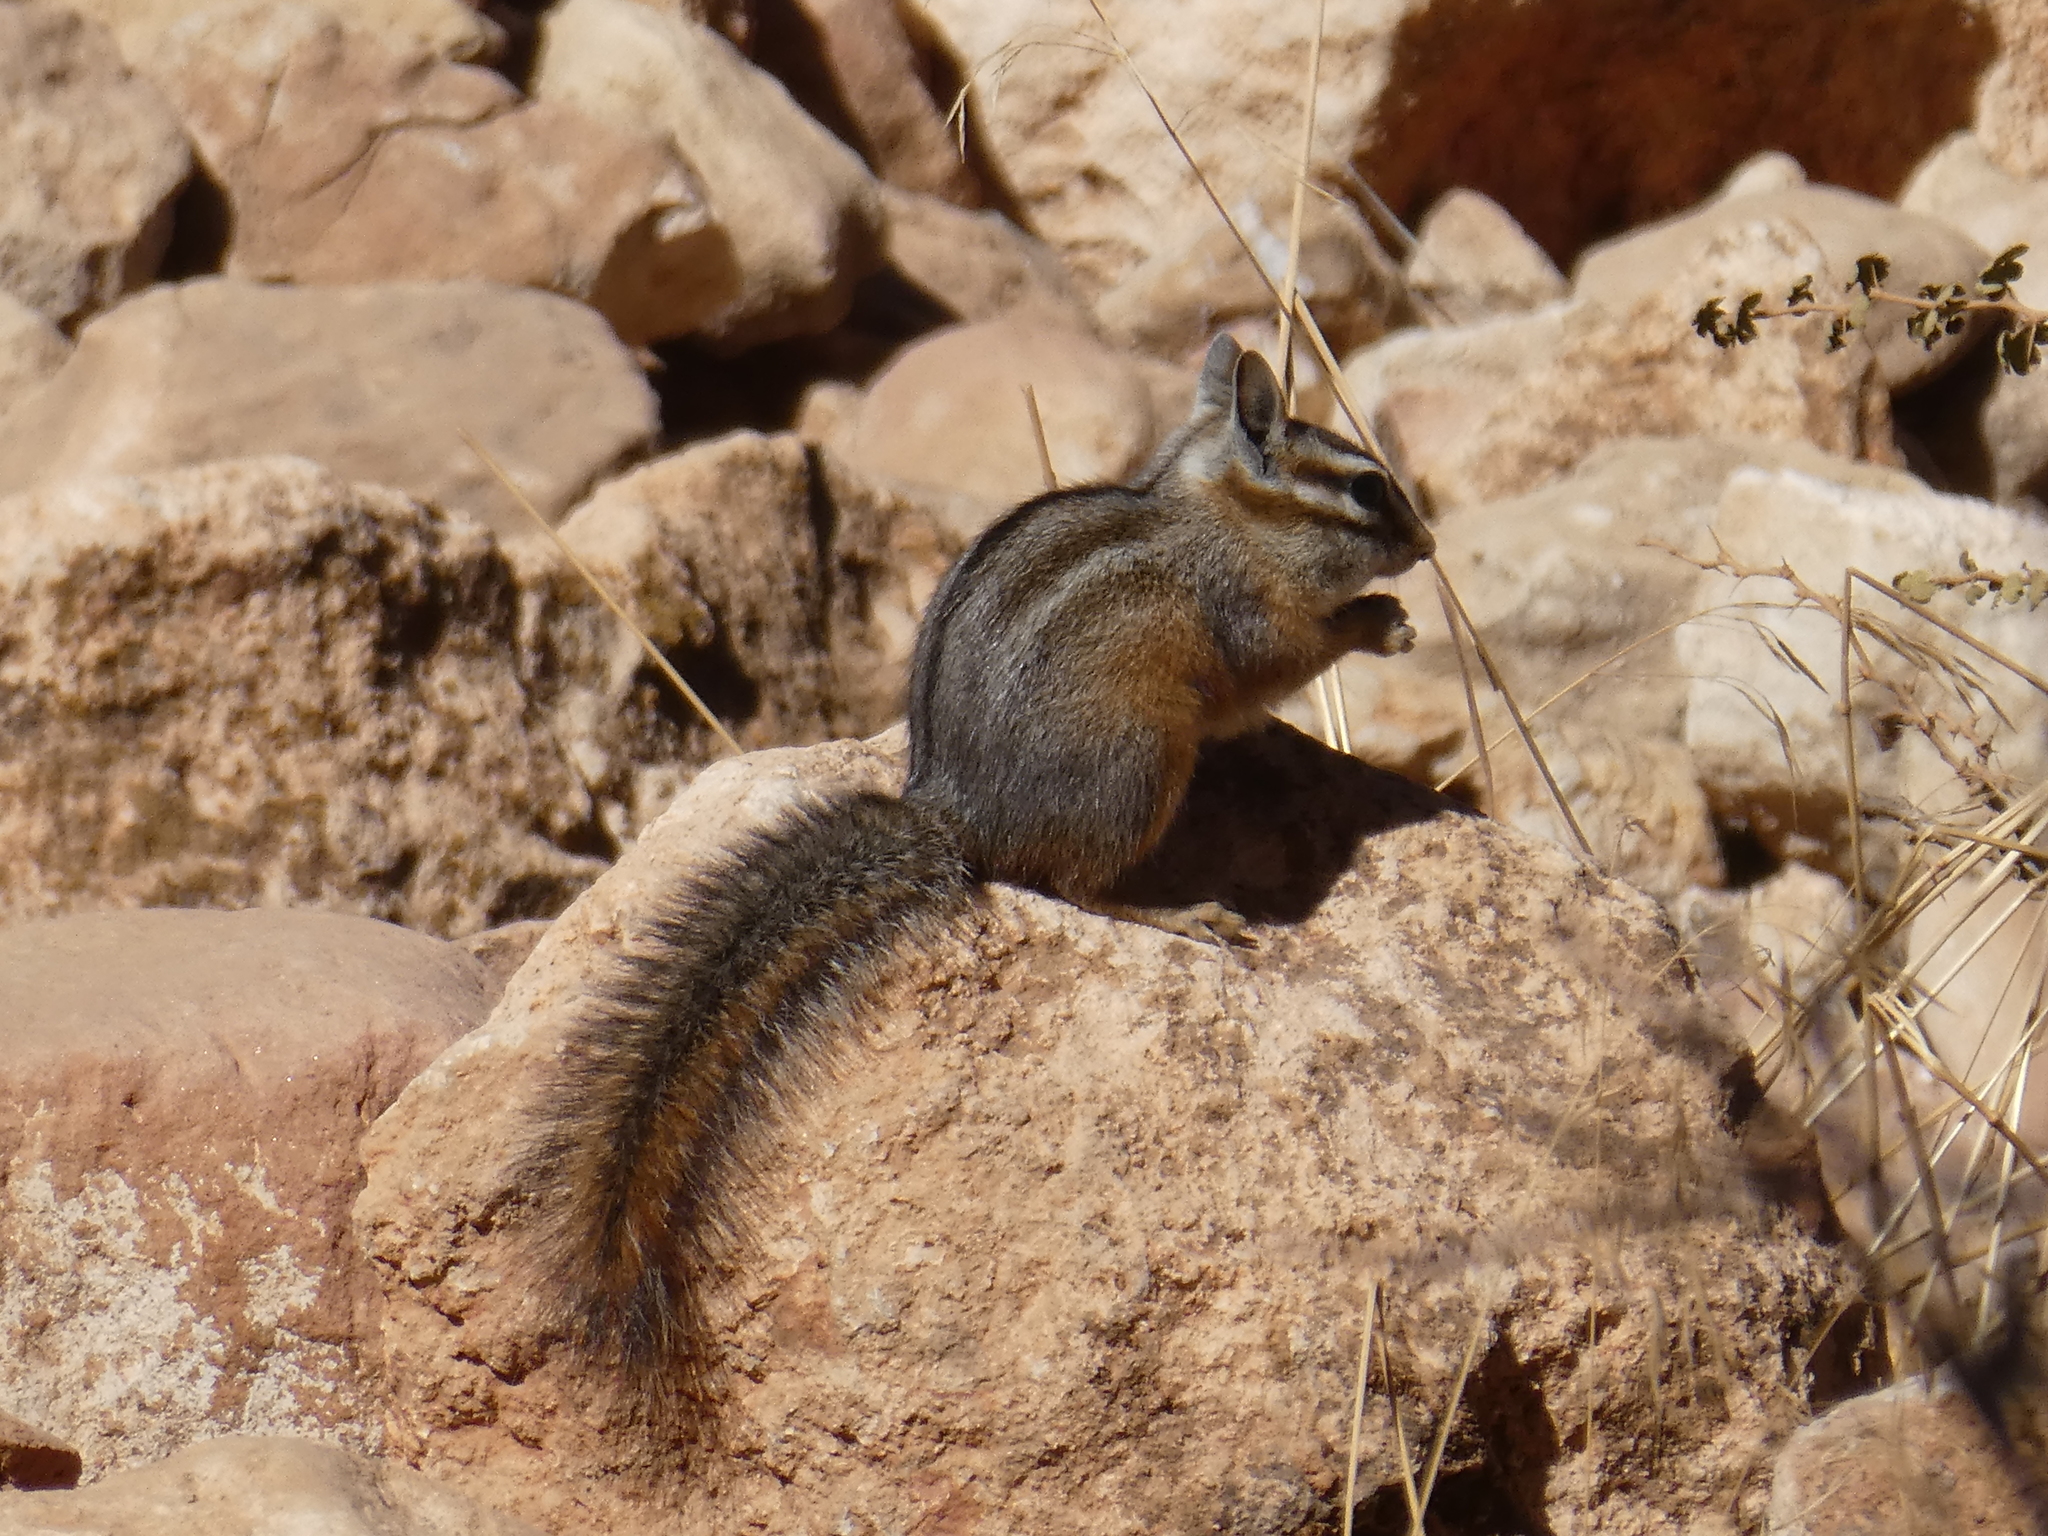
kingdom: Animalia
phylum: Chordata
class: Mammalia
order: Rodentia
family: Sciuridae
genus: Tamias
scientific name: Tamias dorsalis
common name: Cliff chipmunk
